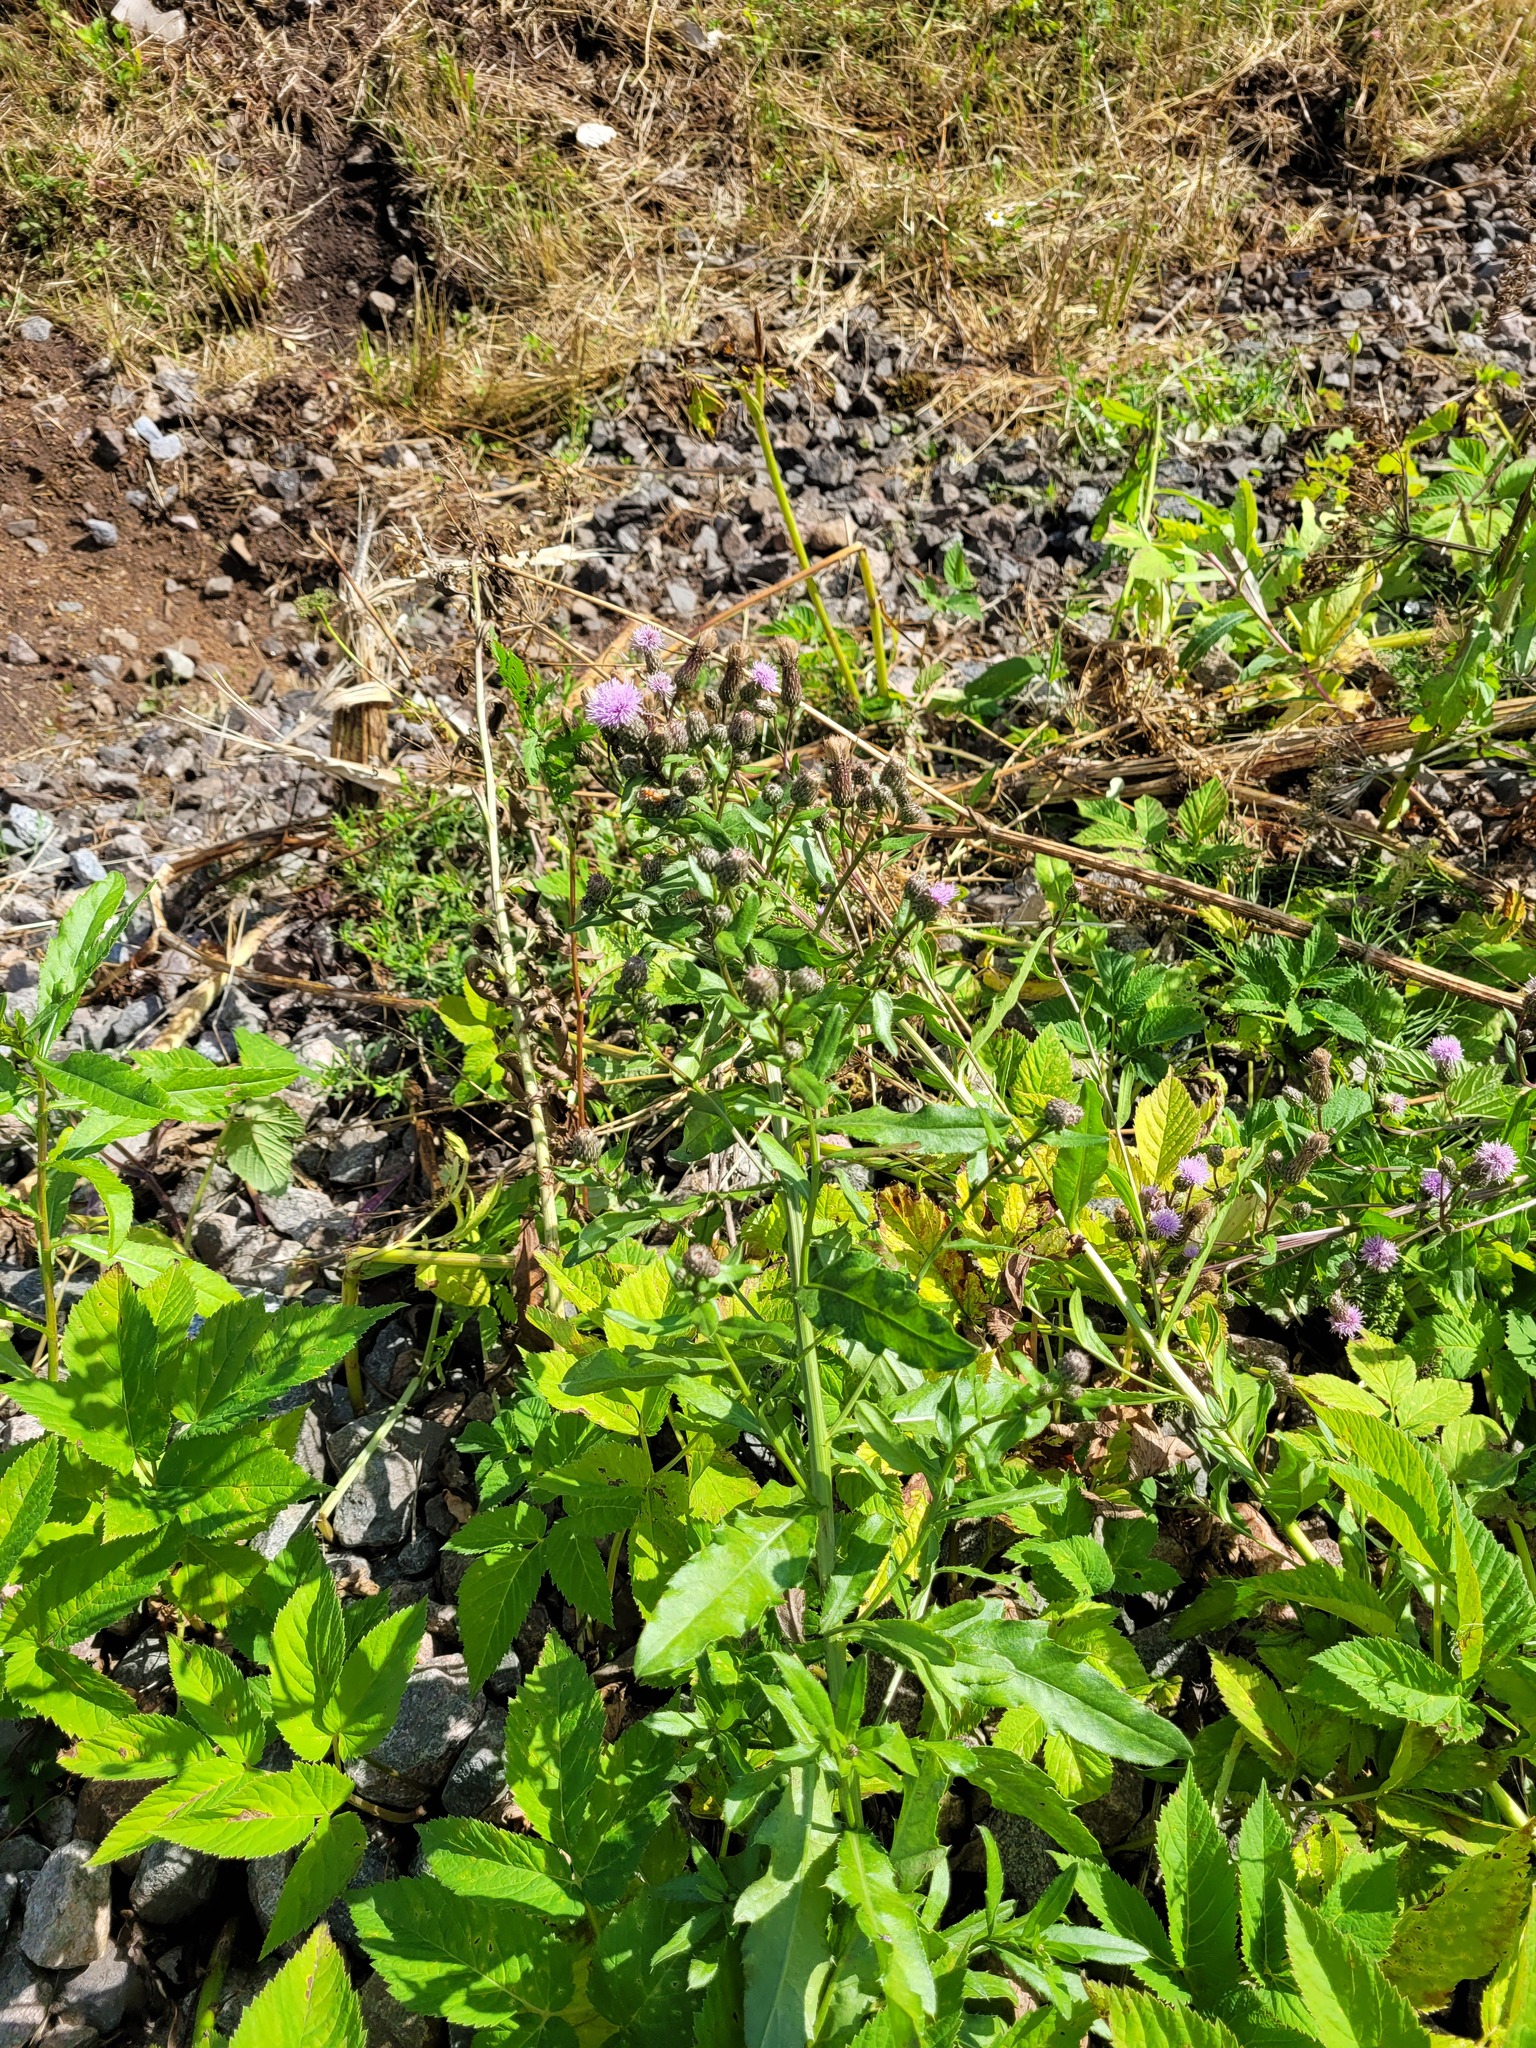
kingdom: Plantae
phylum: Tracheophyta
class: Magnoliopsida
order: Asterales
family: Asteraceae
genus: Cirsium
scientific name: Cirsium arvense
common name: Creeping thistle
